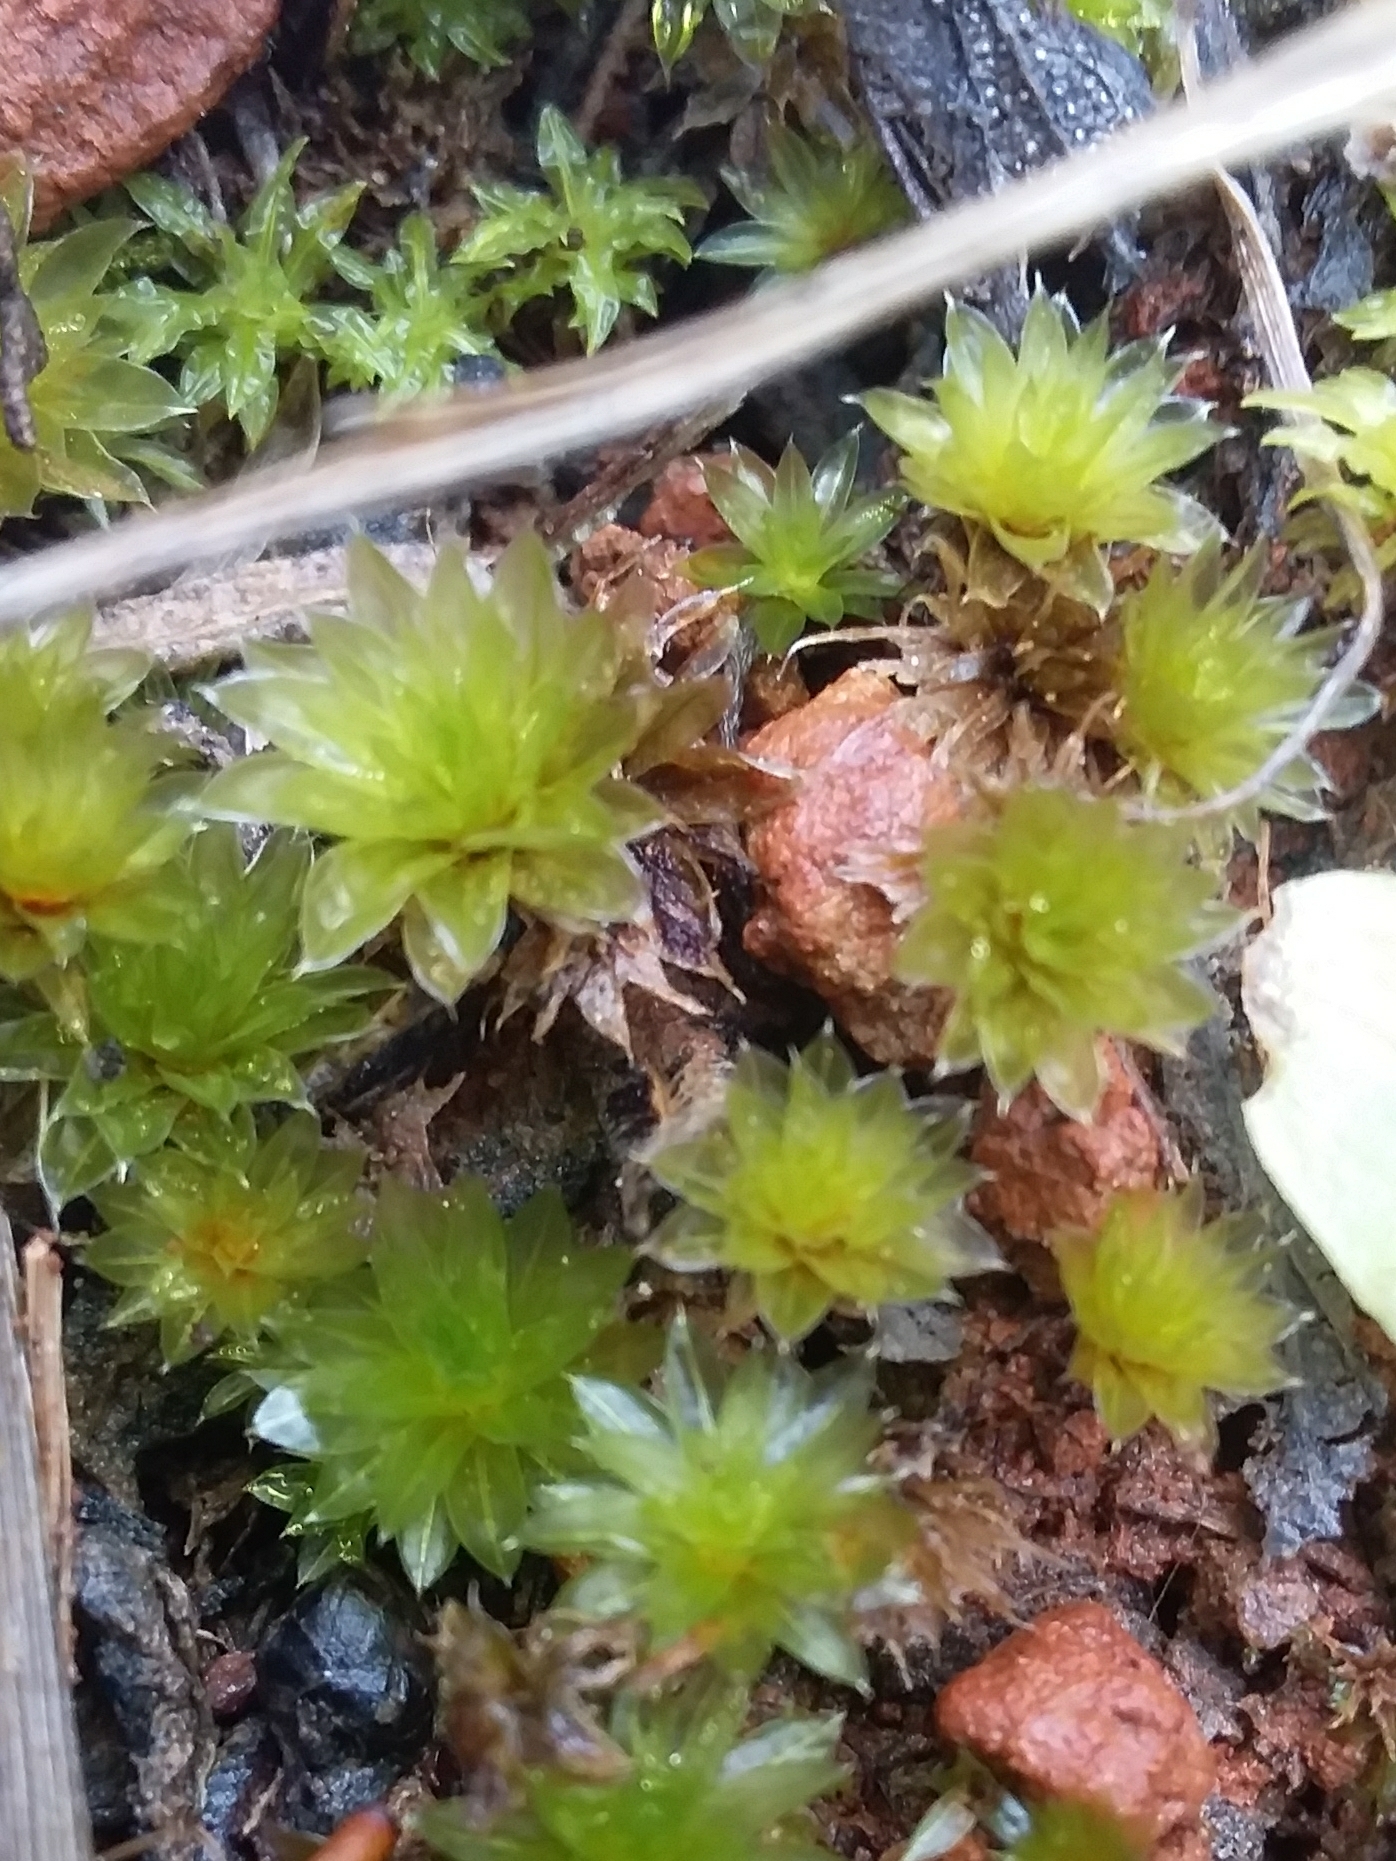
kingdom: Plantae
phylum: Bryophyta
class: Bryopsida
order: Bryales
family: Bryaceae
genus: Rosulabryum
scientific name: Rosulabryum billardierei
